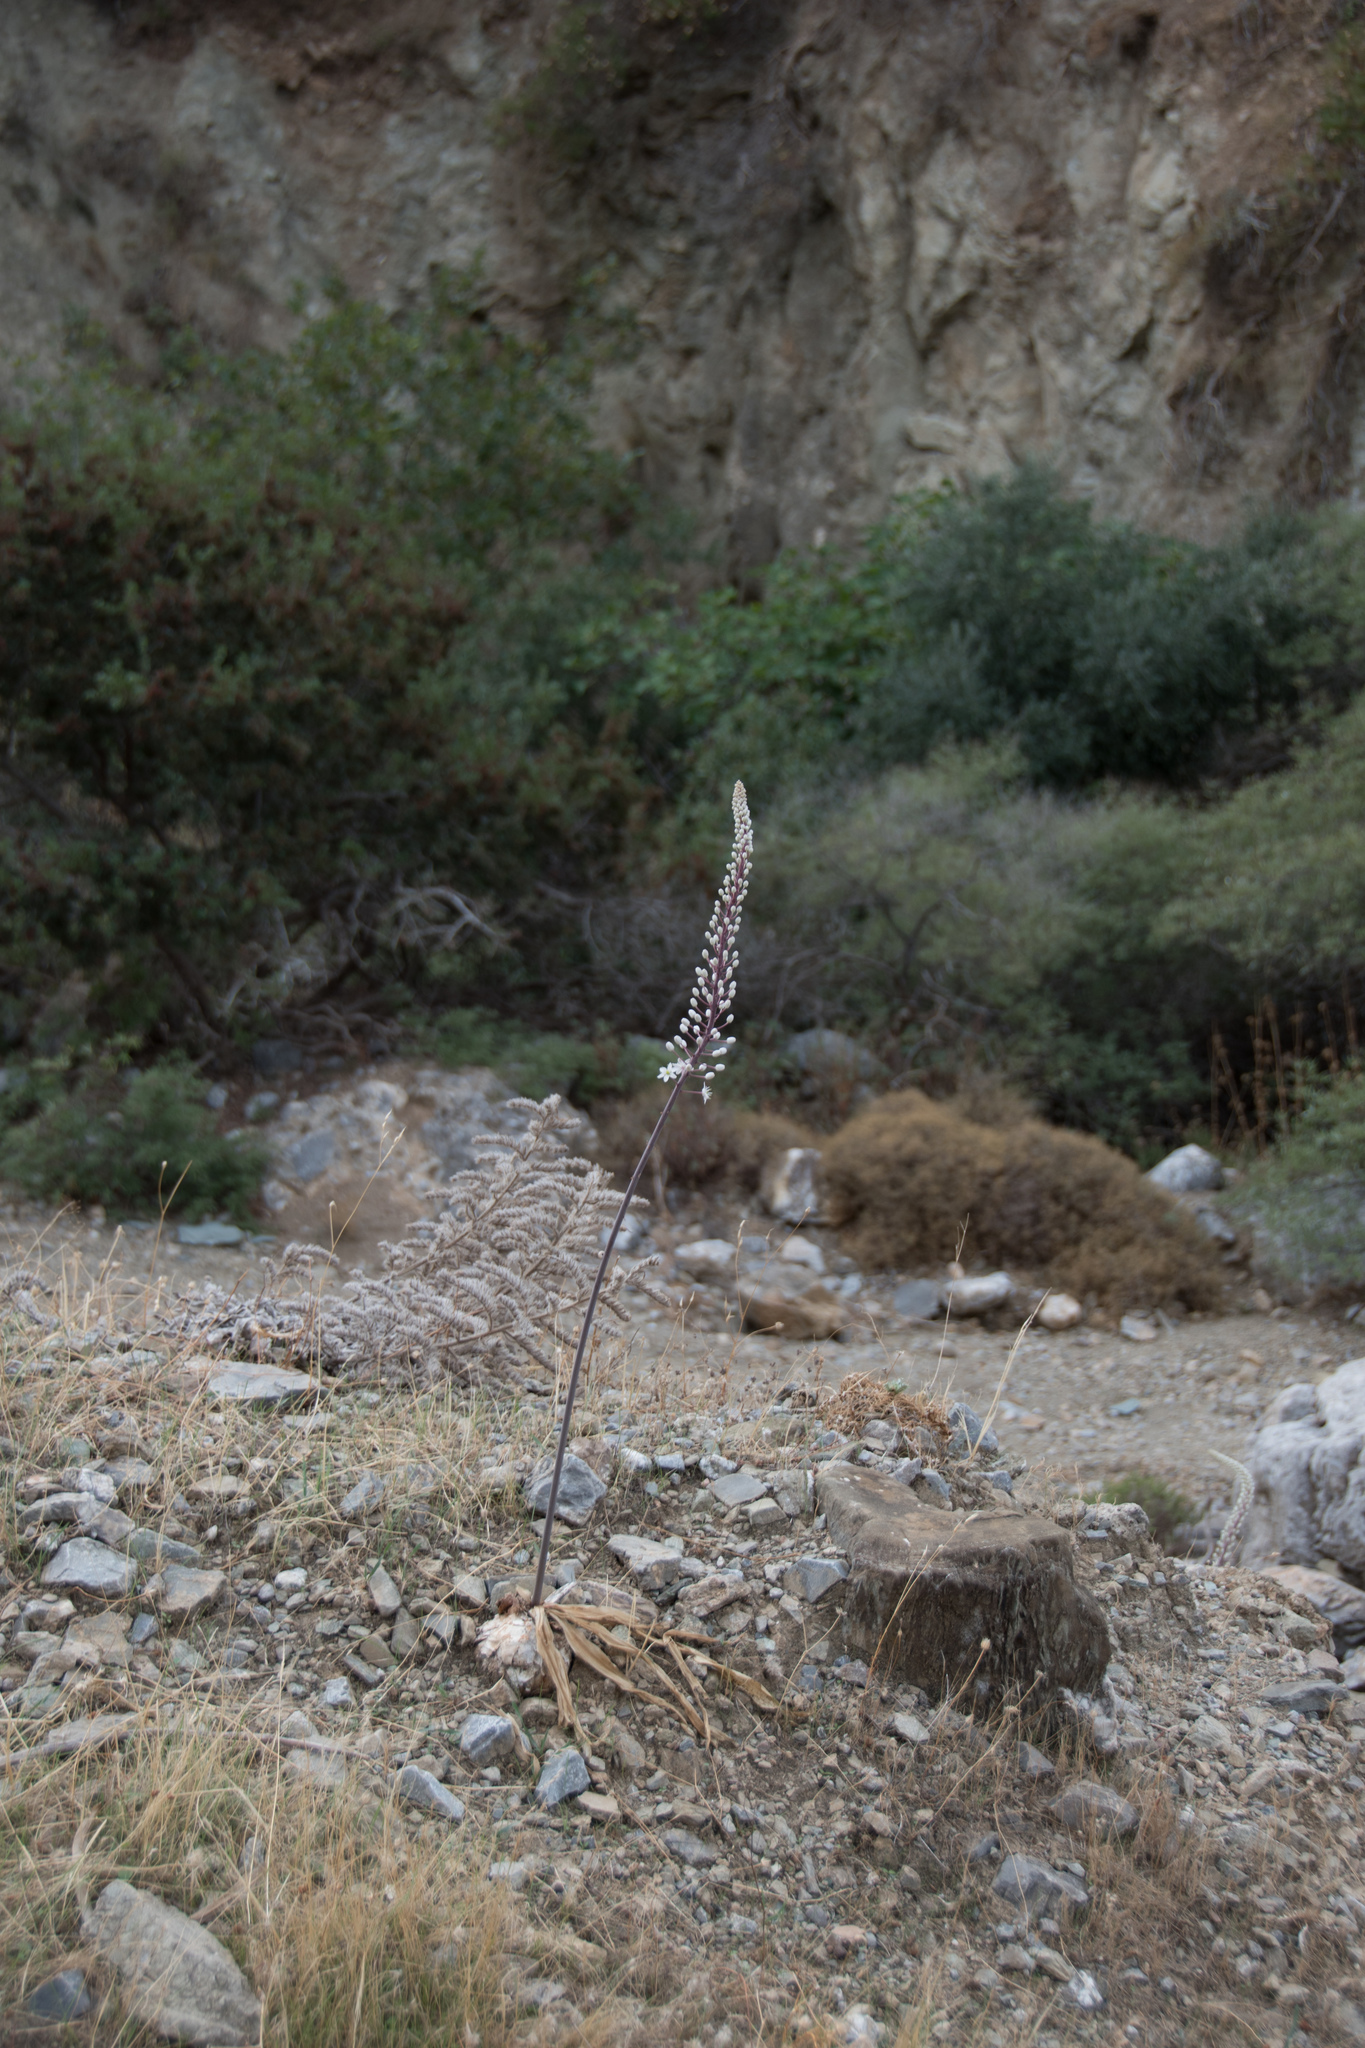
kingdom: Plantae
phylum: Tracheophyta
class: Liliopsida
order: Asparagales
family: Asparagaceae
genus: Drimia
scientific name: Drimia numidica
